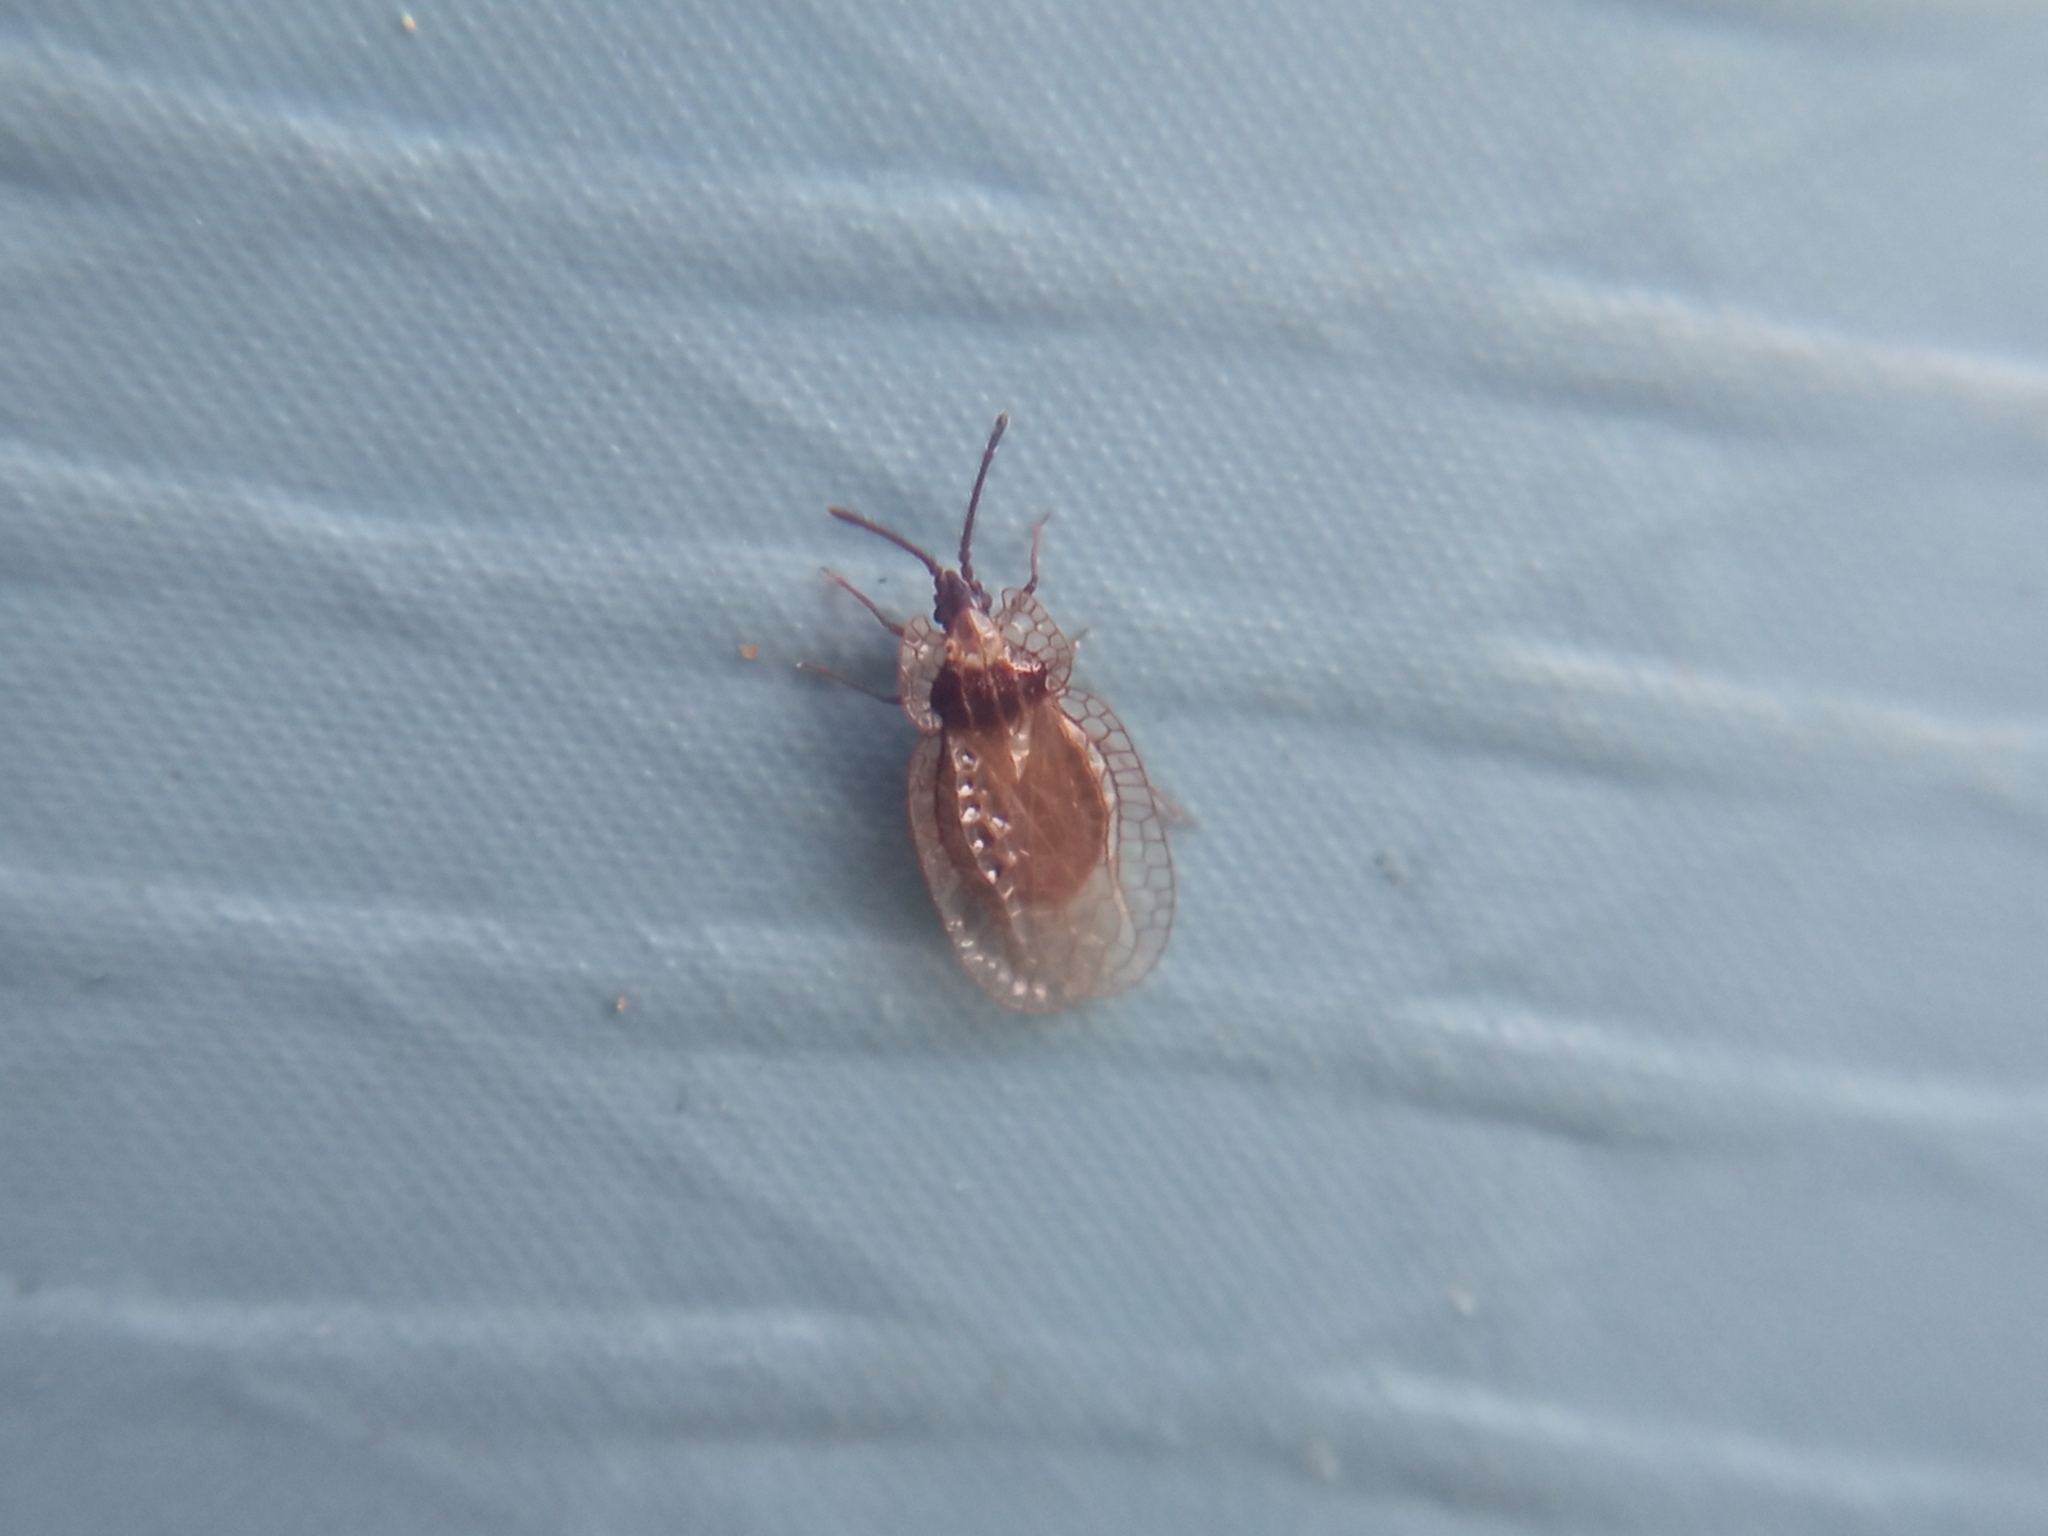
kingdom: Animalia
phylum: Arthropoda
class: Insecta
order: Hemiptera
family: Tingidae
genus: Derephysia
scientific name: Derephysia foliacea
